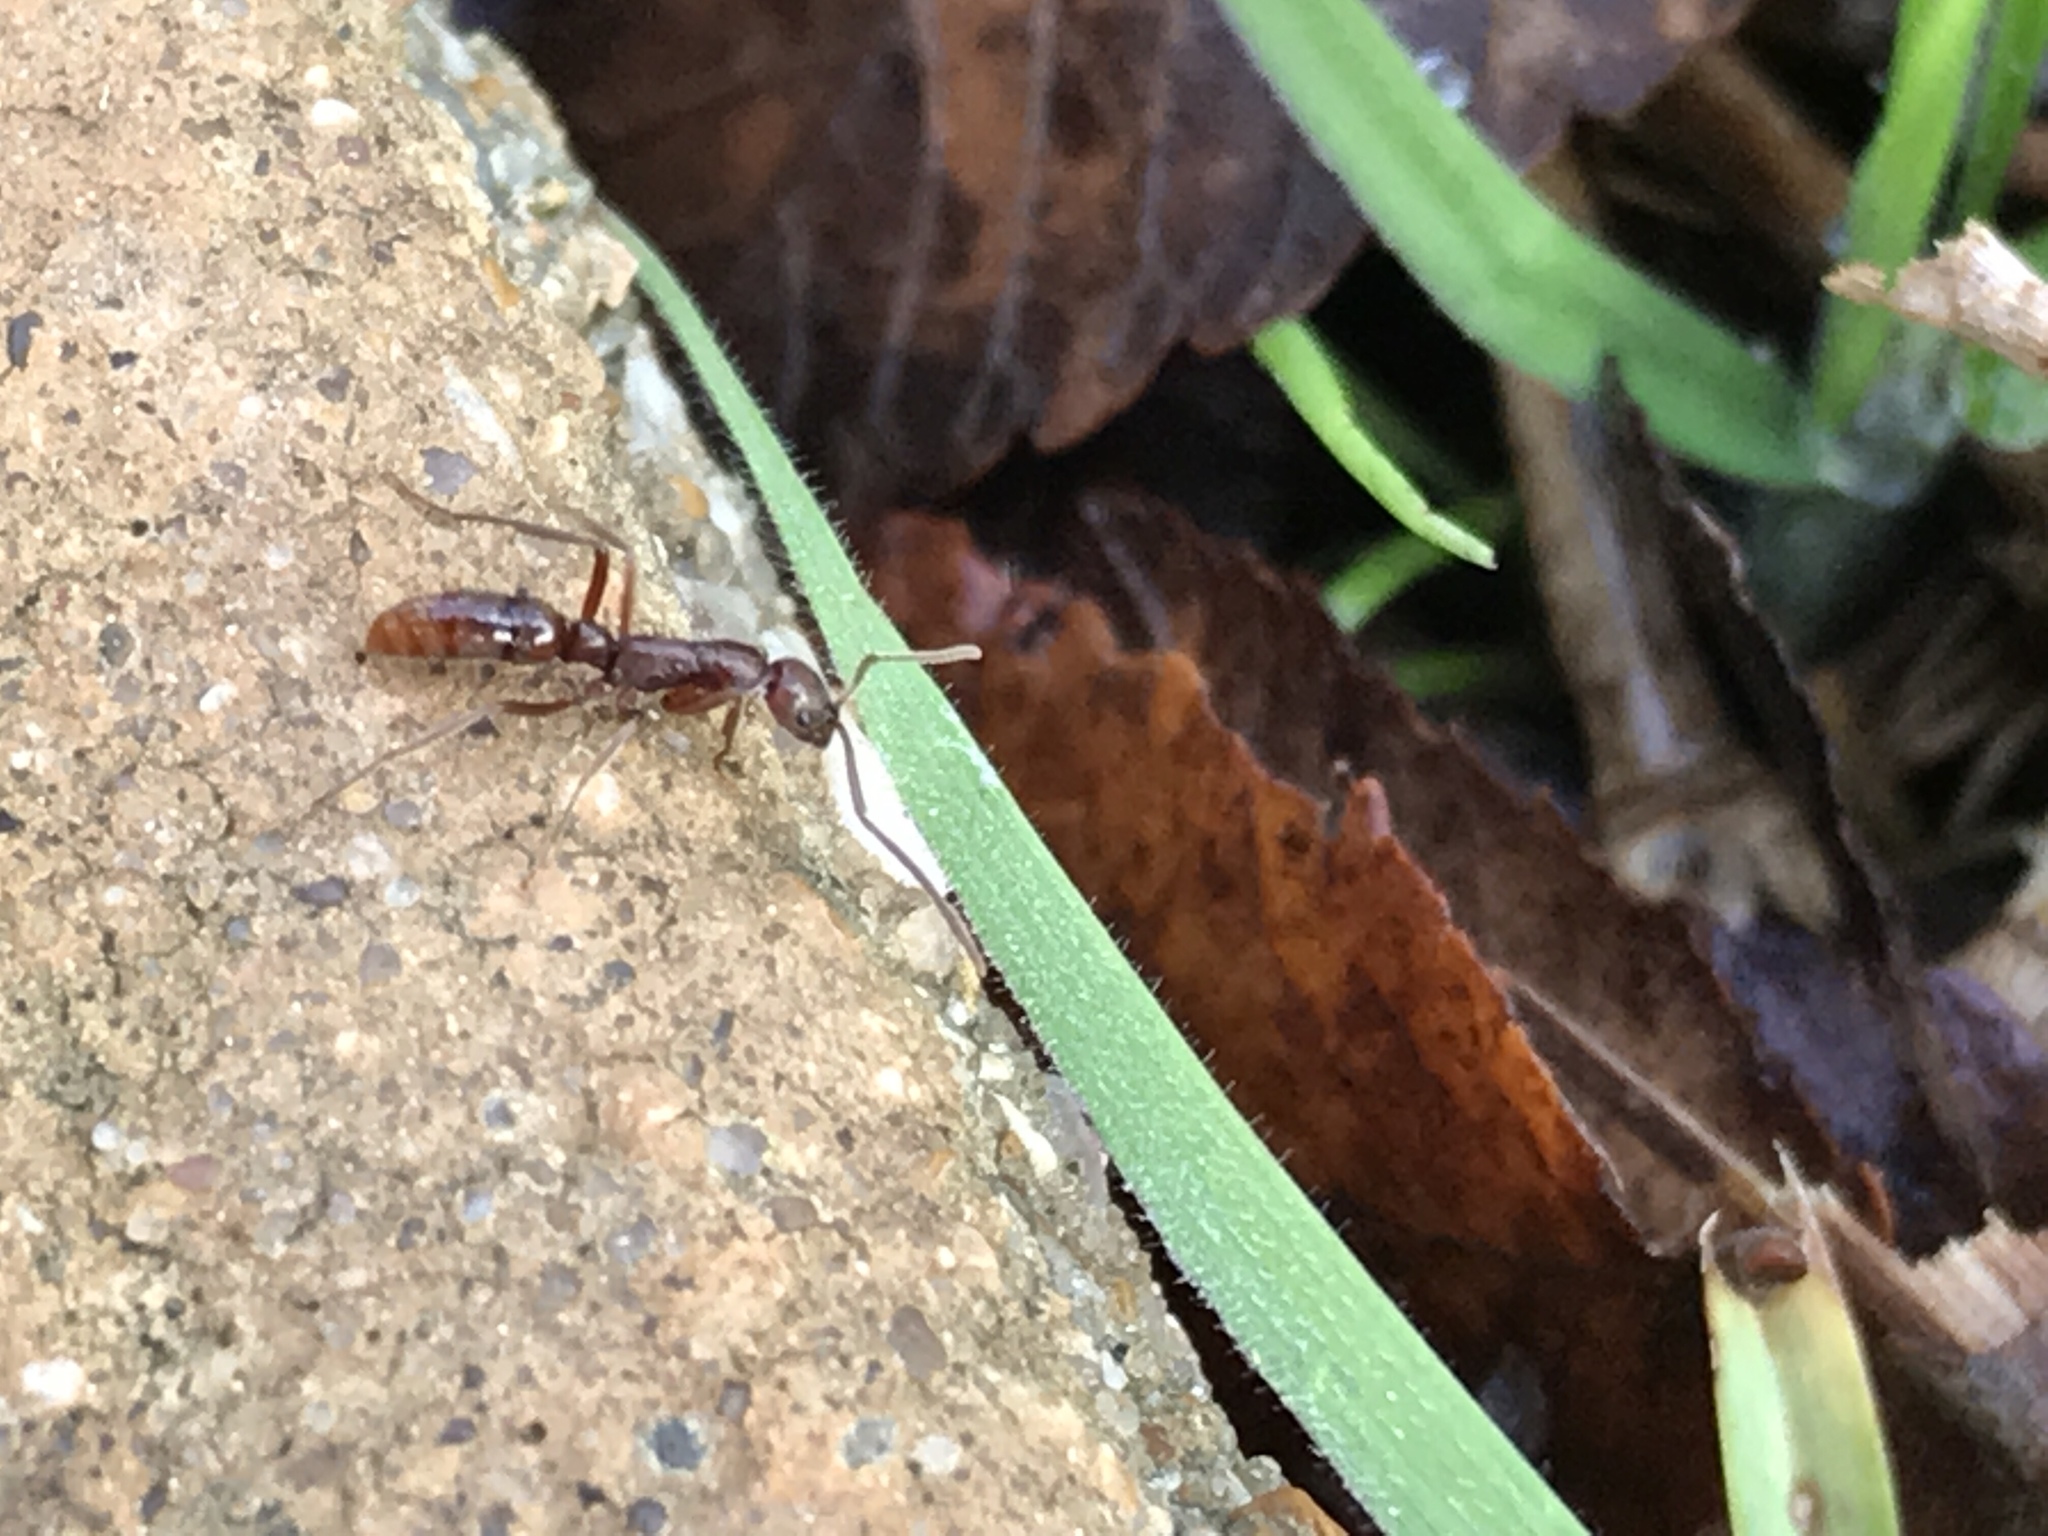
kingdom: Animalia
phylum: Arthropoda
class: Insecta
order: Hymenoptera
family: Formicidae
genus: Leptogenys
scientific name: Leptogenys elongata
